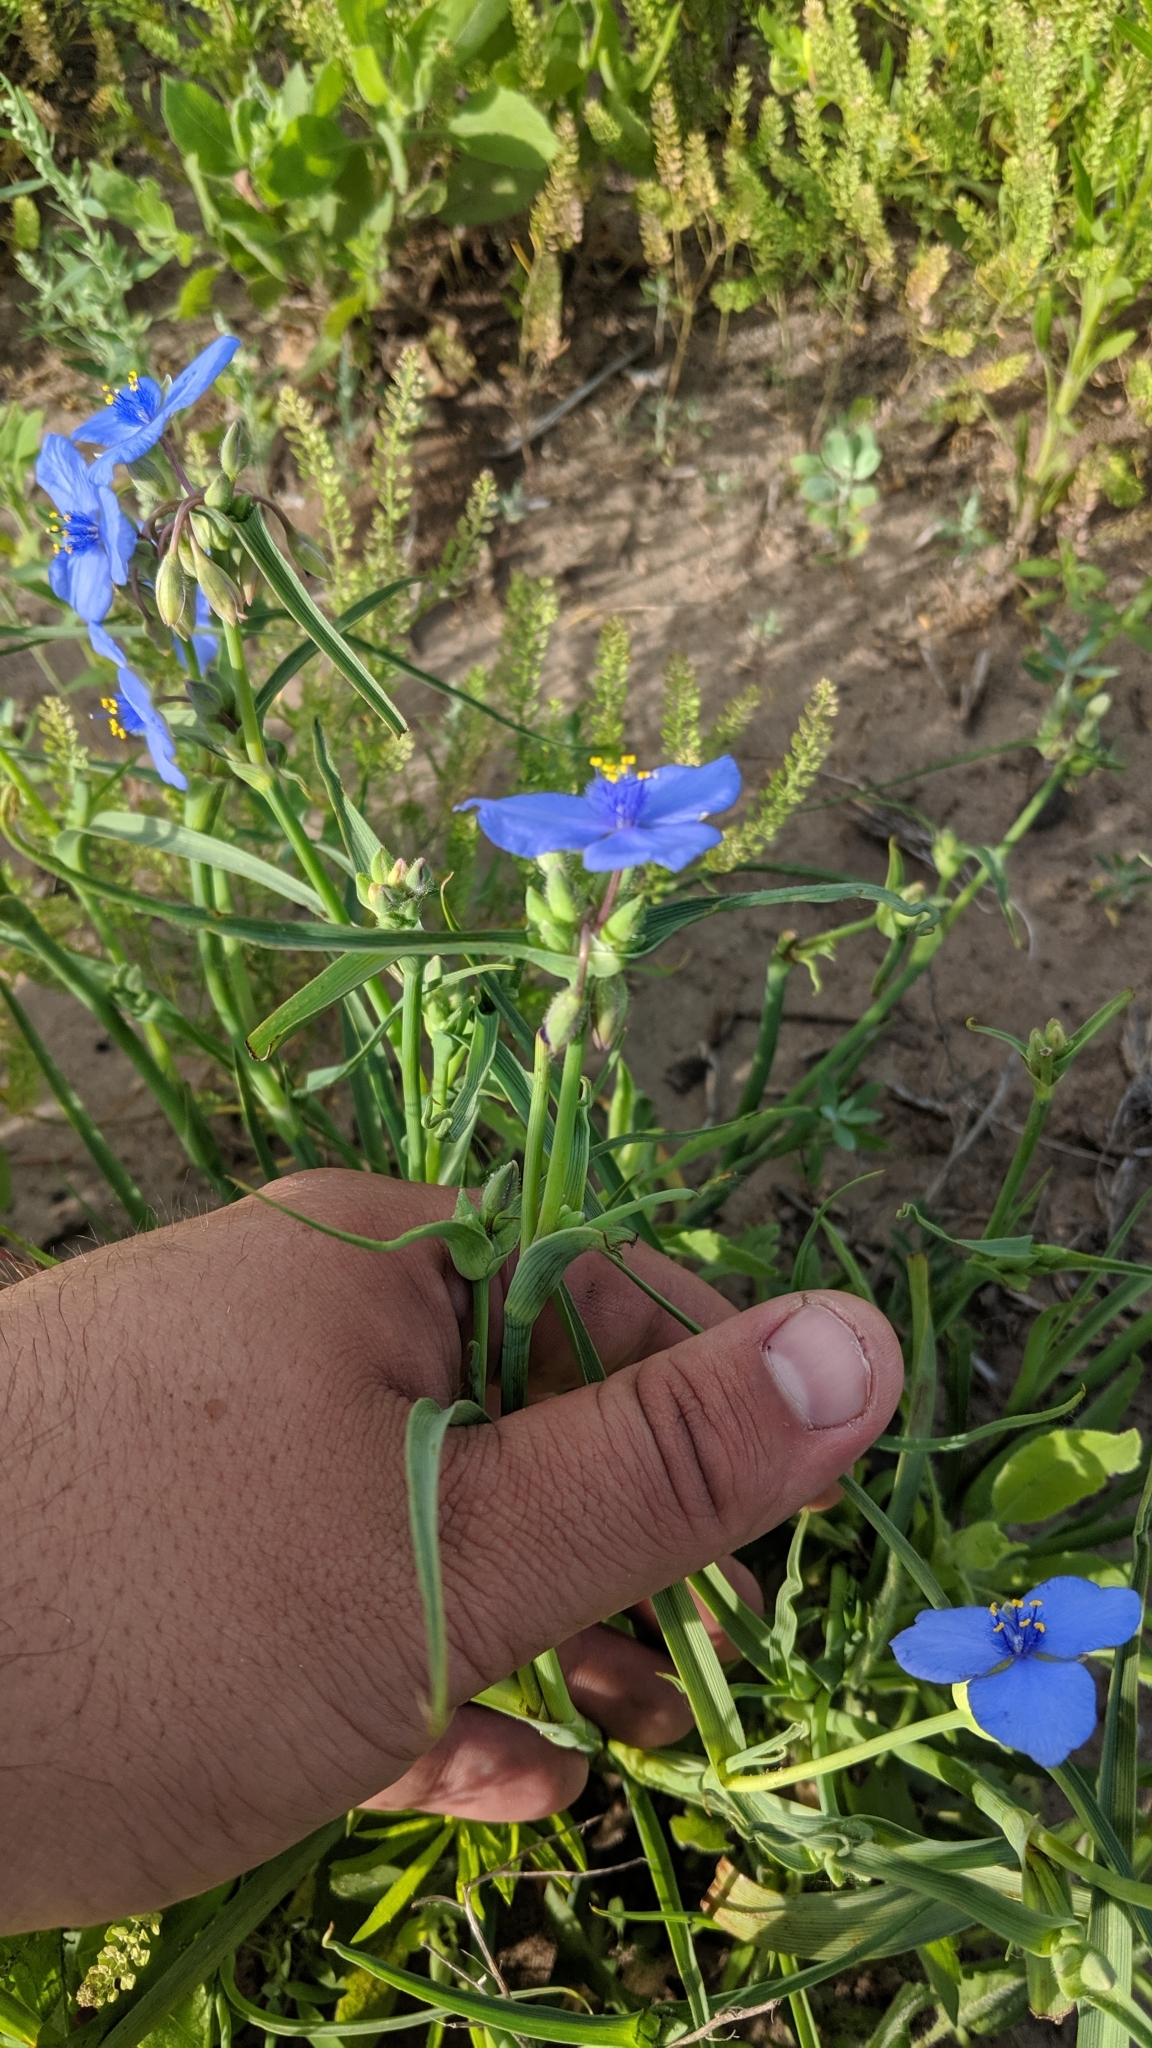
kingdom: Plantae
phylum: Tracheophyta
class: Liliopsida
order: Commelinales
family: Commelinaceae
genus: Tradescantia
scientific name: Tradescantia occidentalis
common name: Prairie spiderwort
